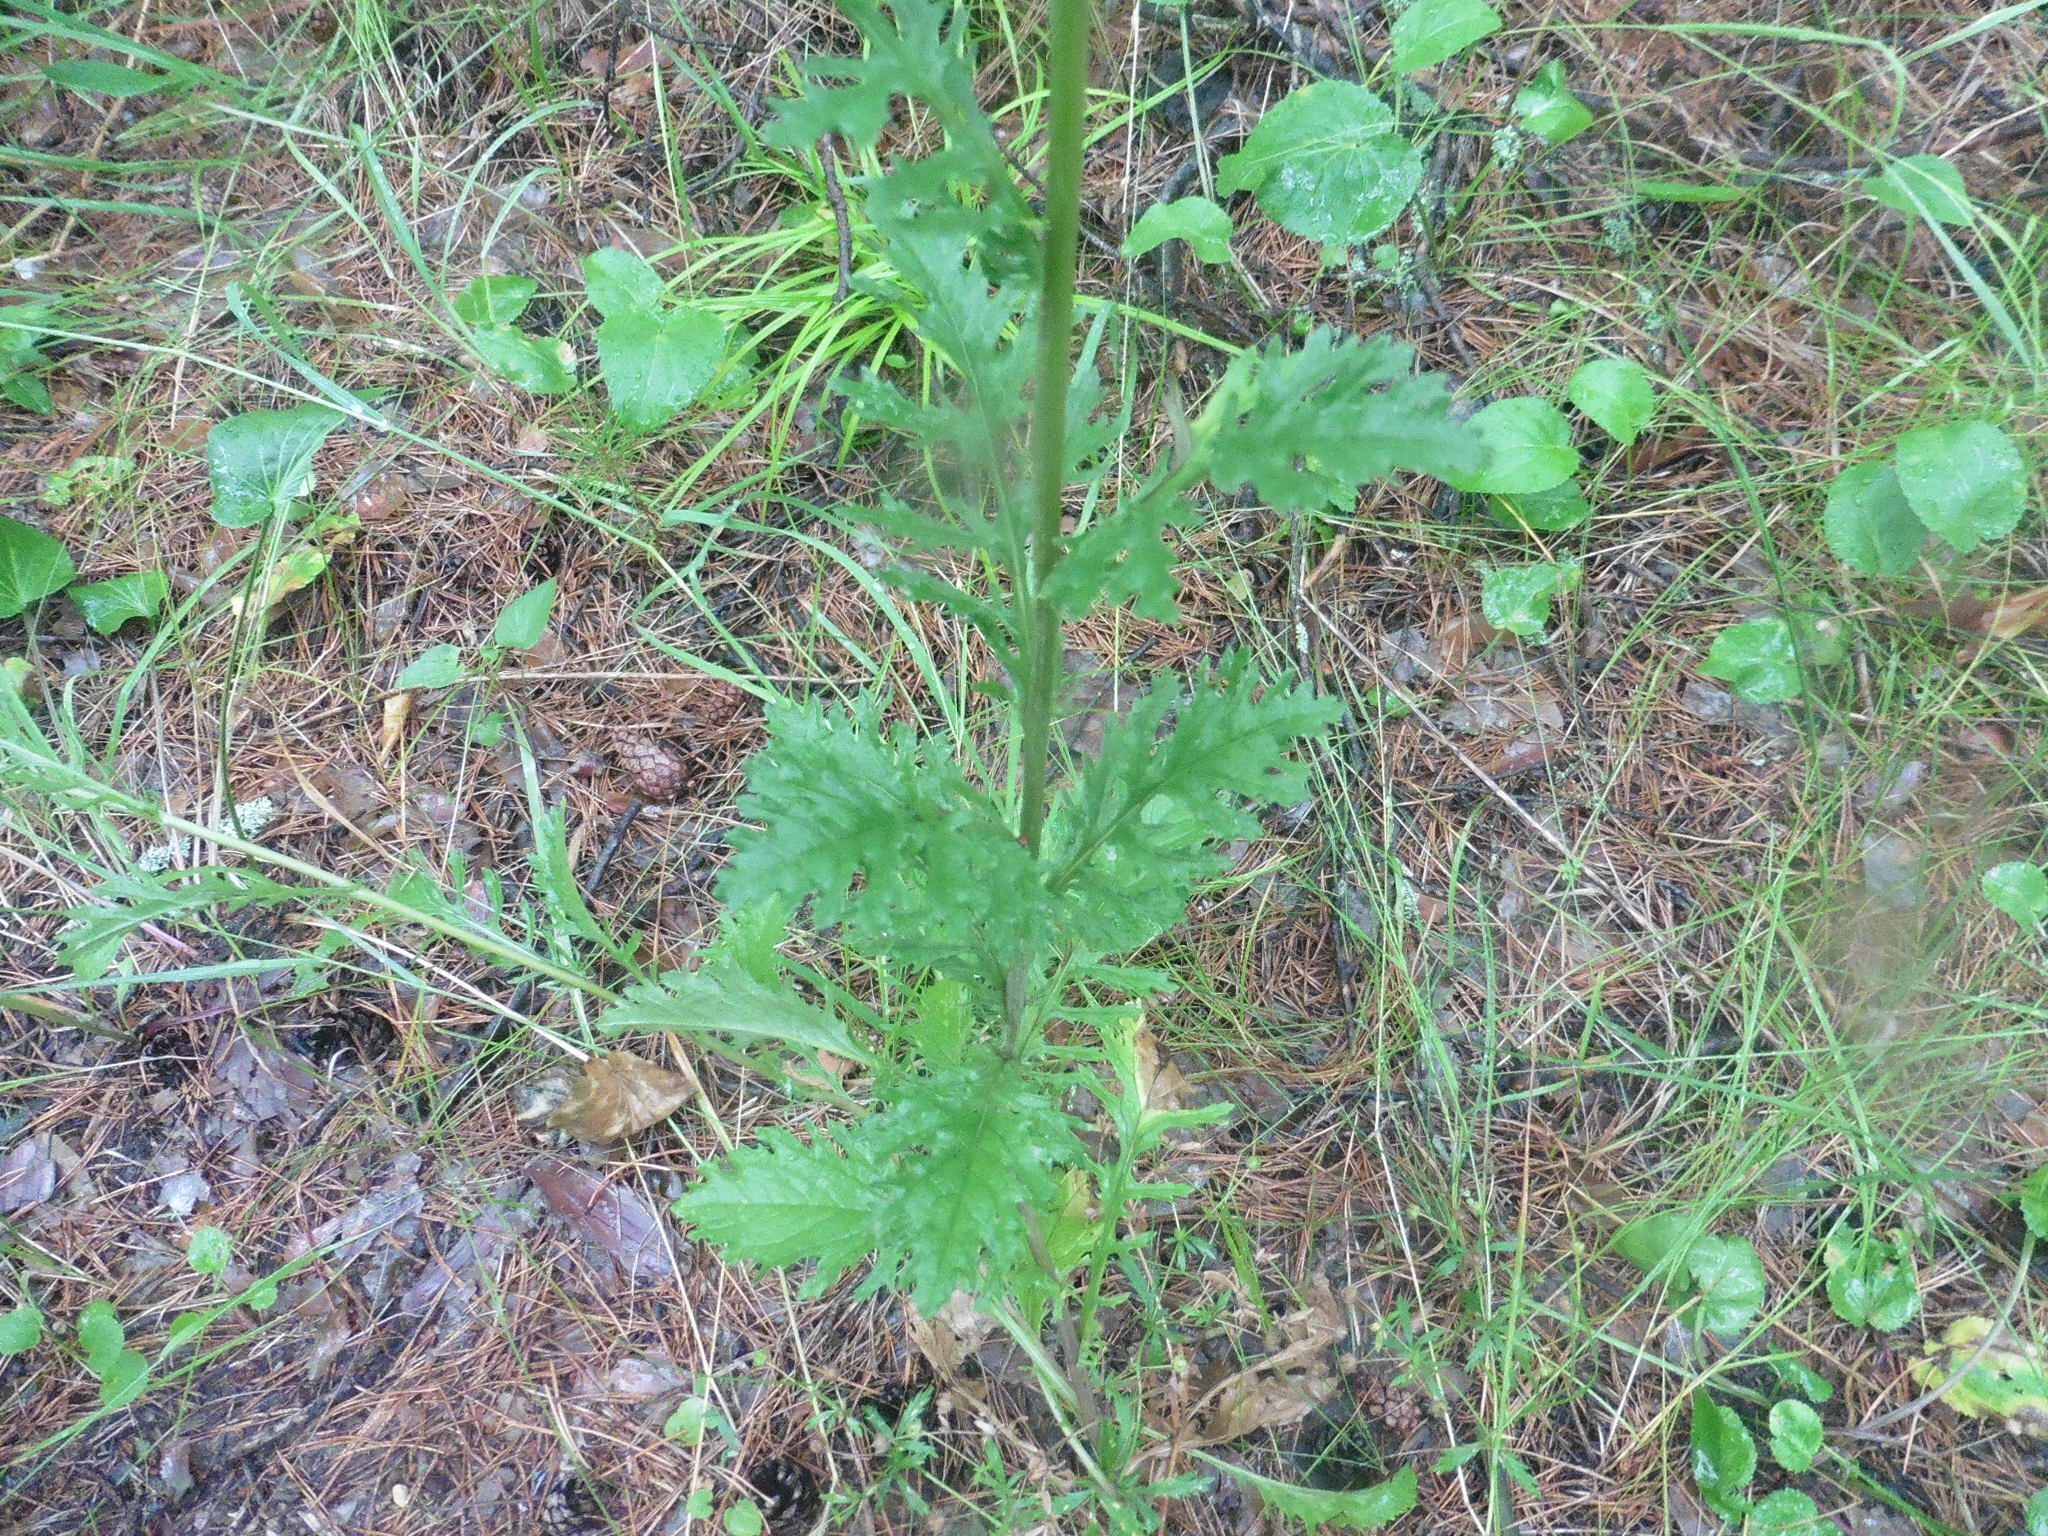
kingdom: Plantae
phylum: Tracheophyta
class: Magnoliopsida
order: Asterales
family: Asteraceae
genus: Jacobaea
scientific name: Jacobaea vulgaris
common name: Stinking willie
